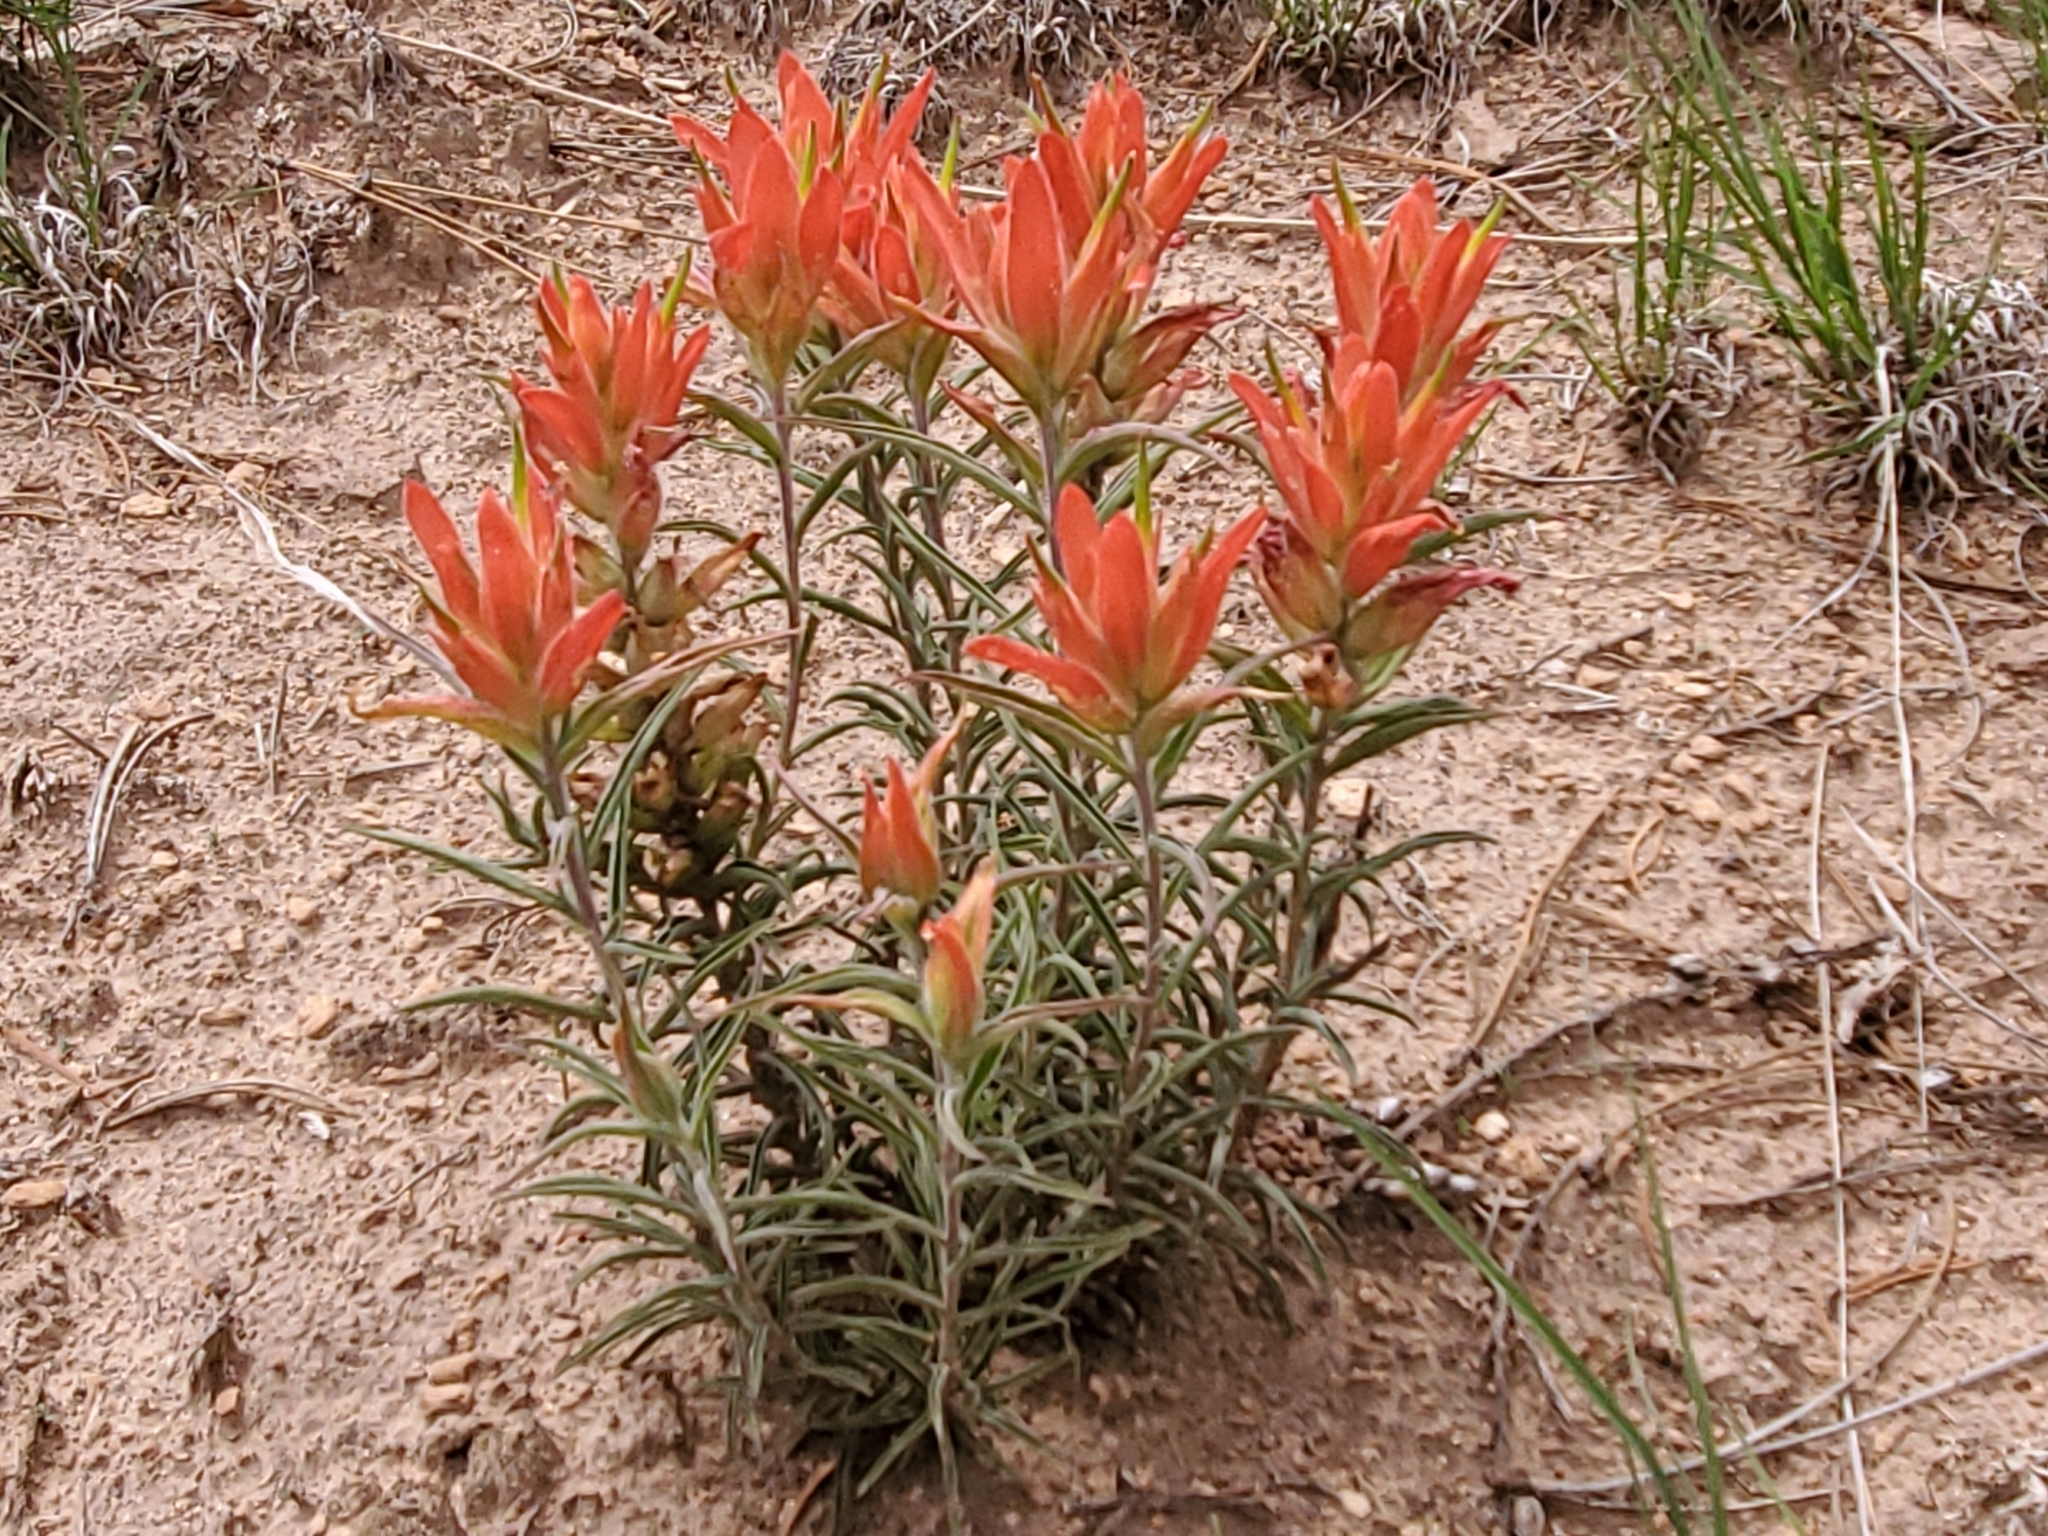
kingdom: Plantae
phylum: Tracheophyta
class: Magnoliopsida
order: Lamiales
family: Orobanchaceae
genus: Castilleja
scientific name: Castilleja integra
